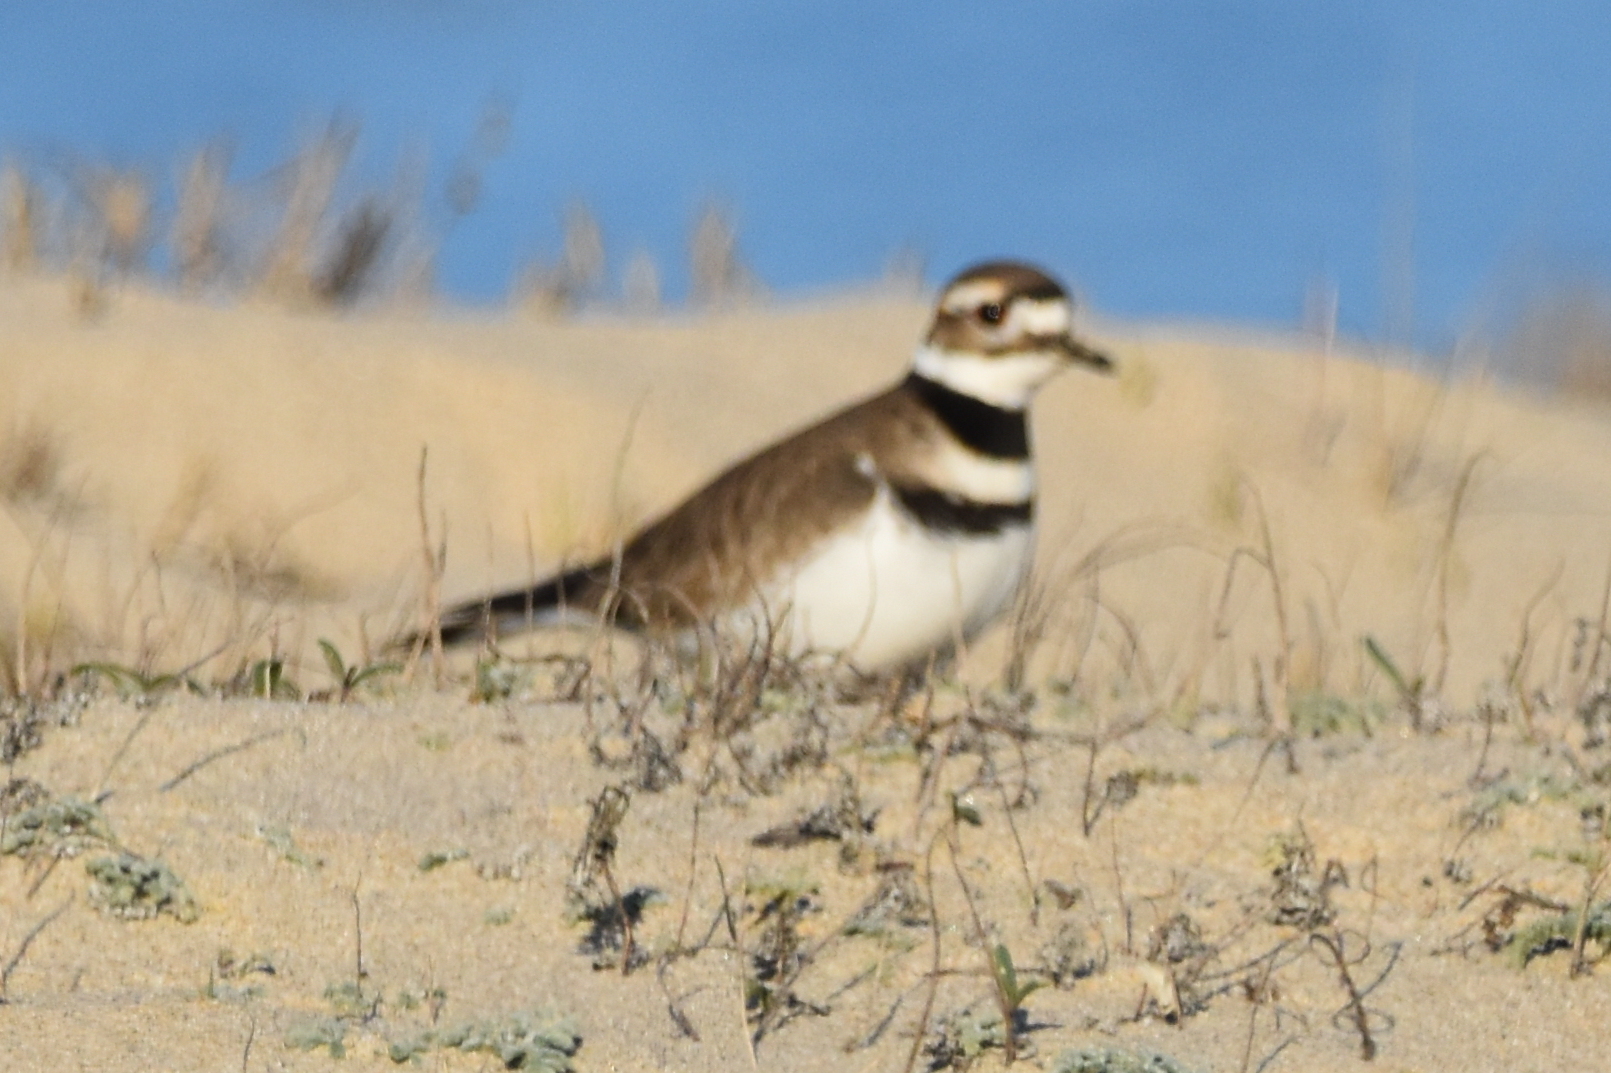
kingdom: Animalia
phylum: Chordata
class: Aves
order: Charadriiformes
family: Charadriidae
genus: Charadrius
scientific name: Charadrius vociferus
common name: Killdeer
